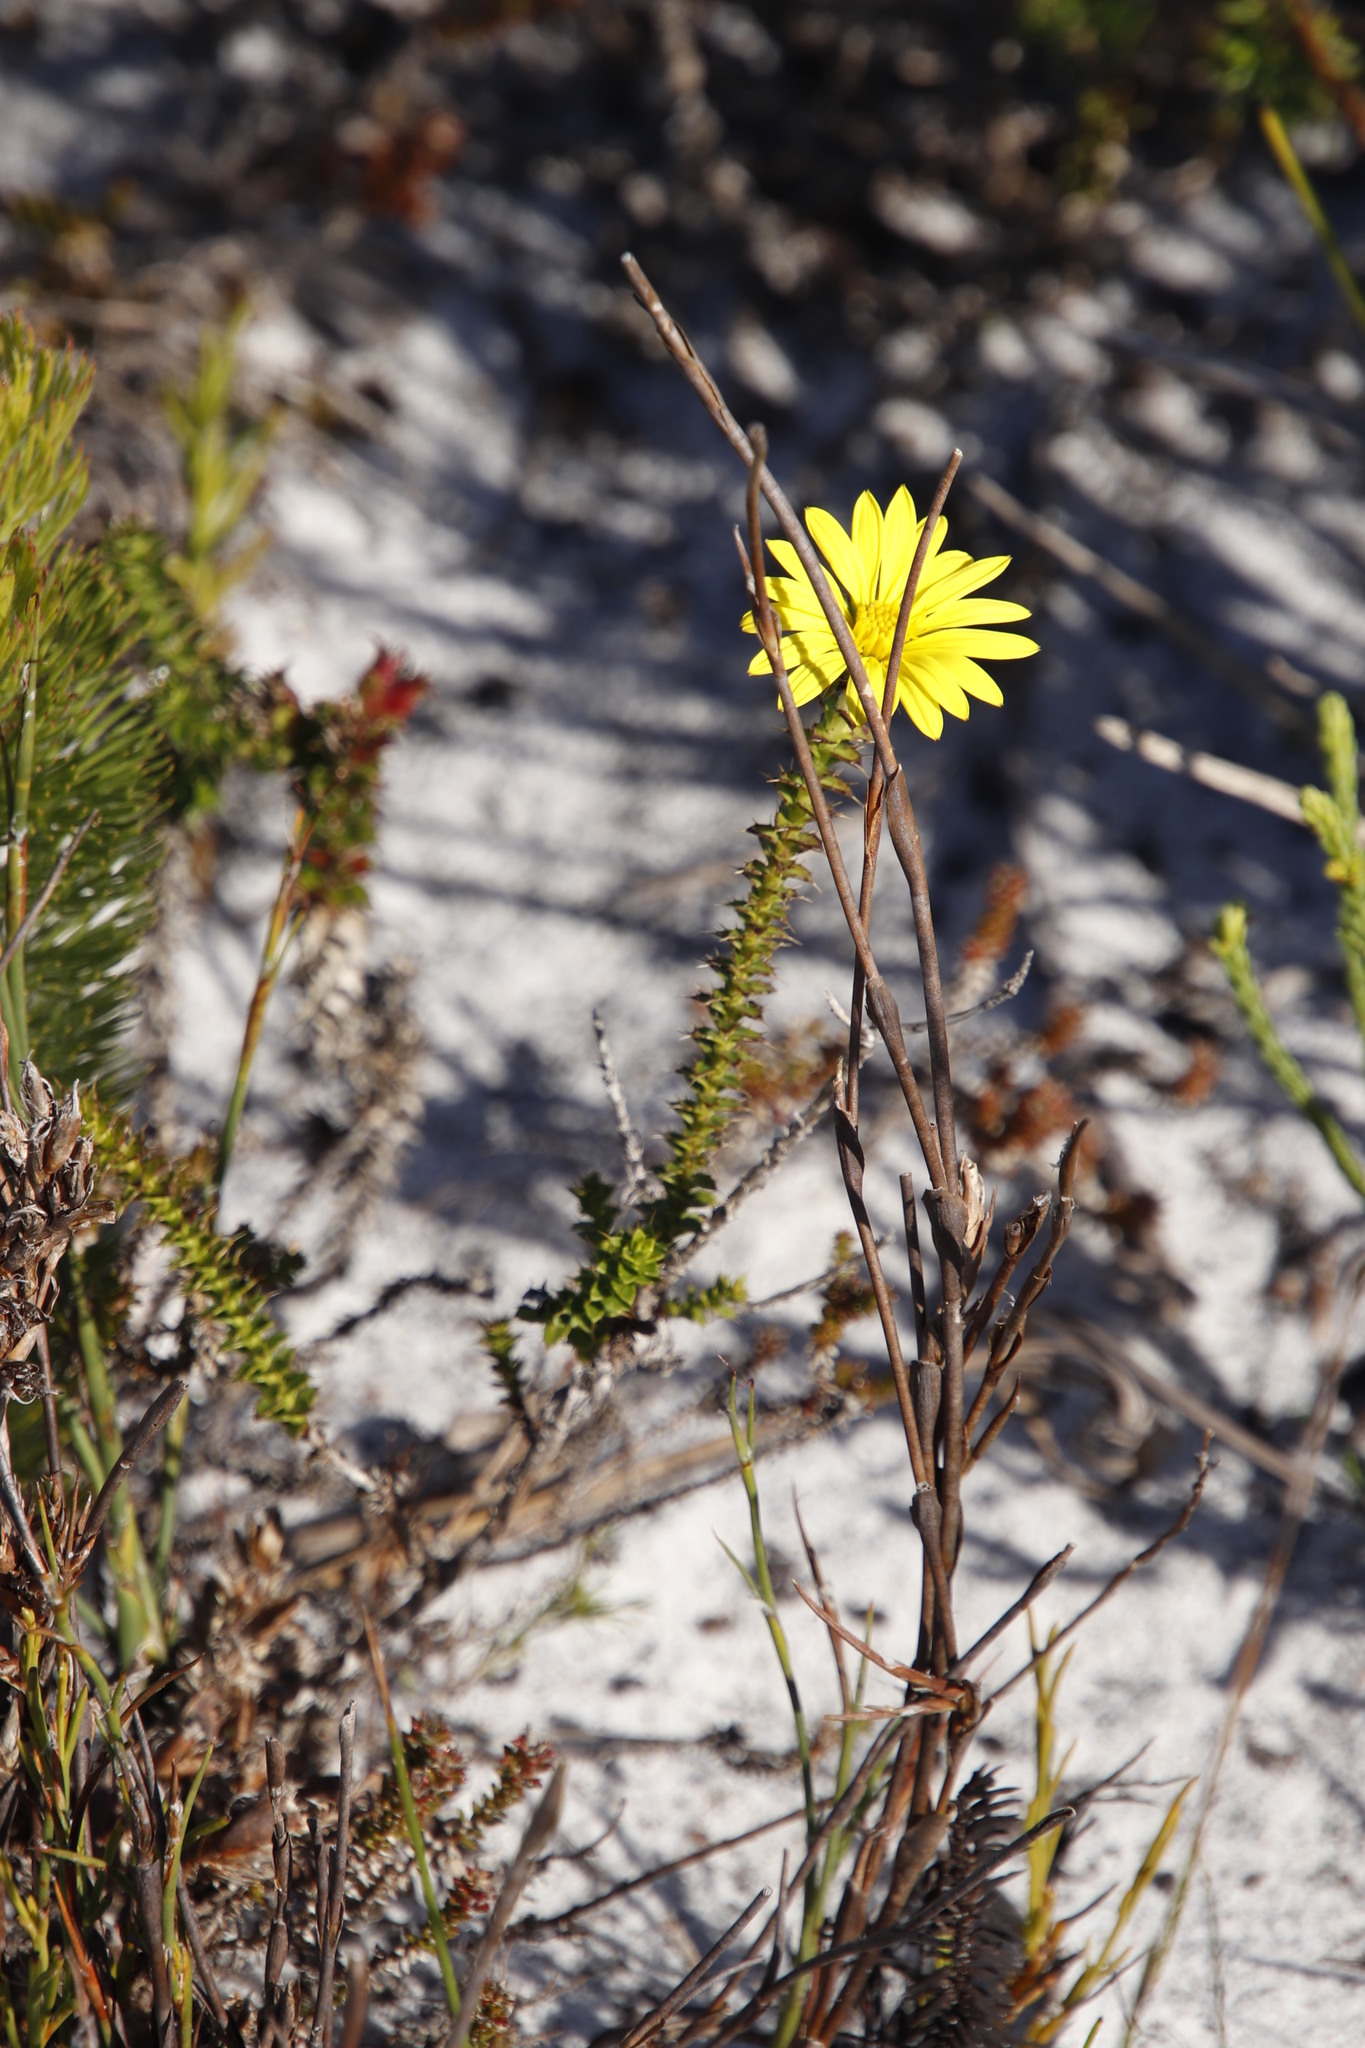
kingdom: Plantae
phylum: Tracheophyta
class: Magnoliopsida
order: Asterales
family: Asteraceae
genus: Cullumia
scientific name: Cullumia setosa
